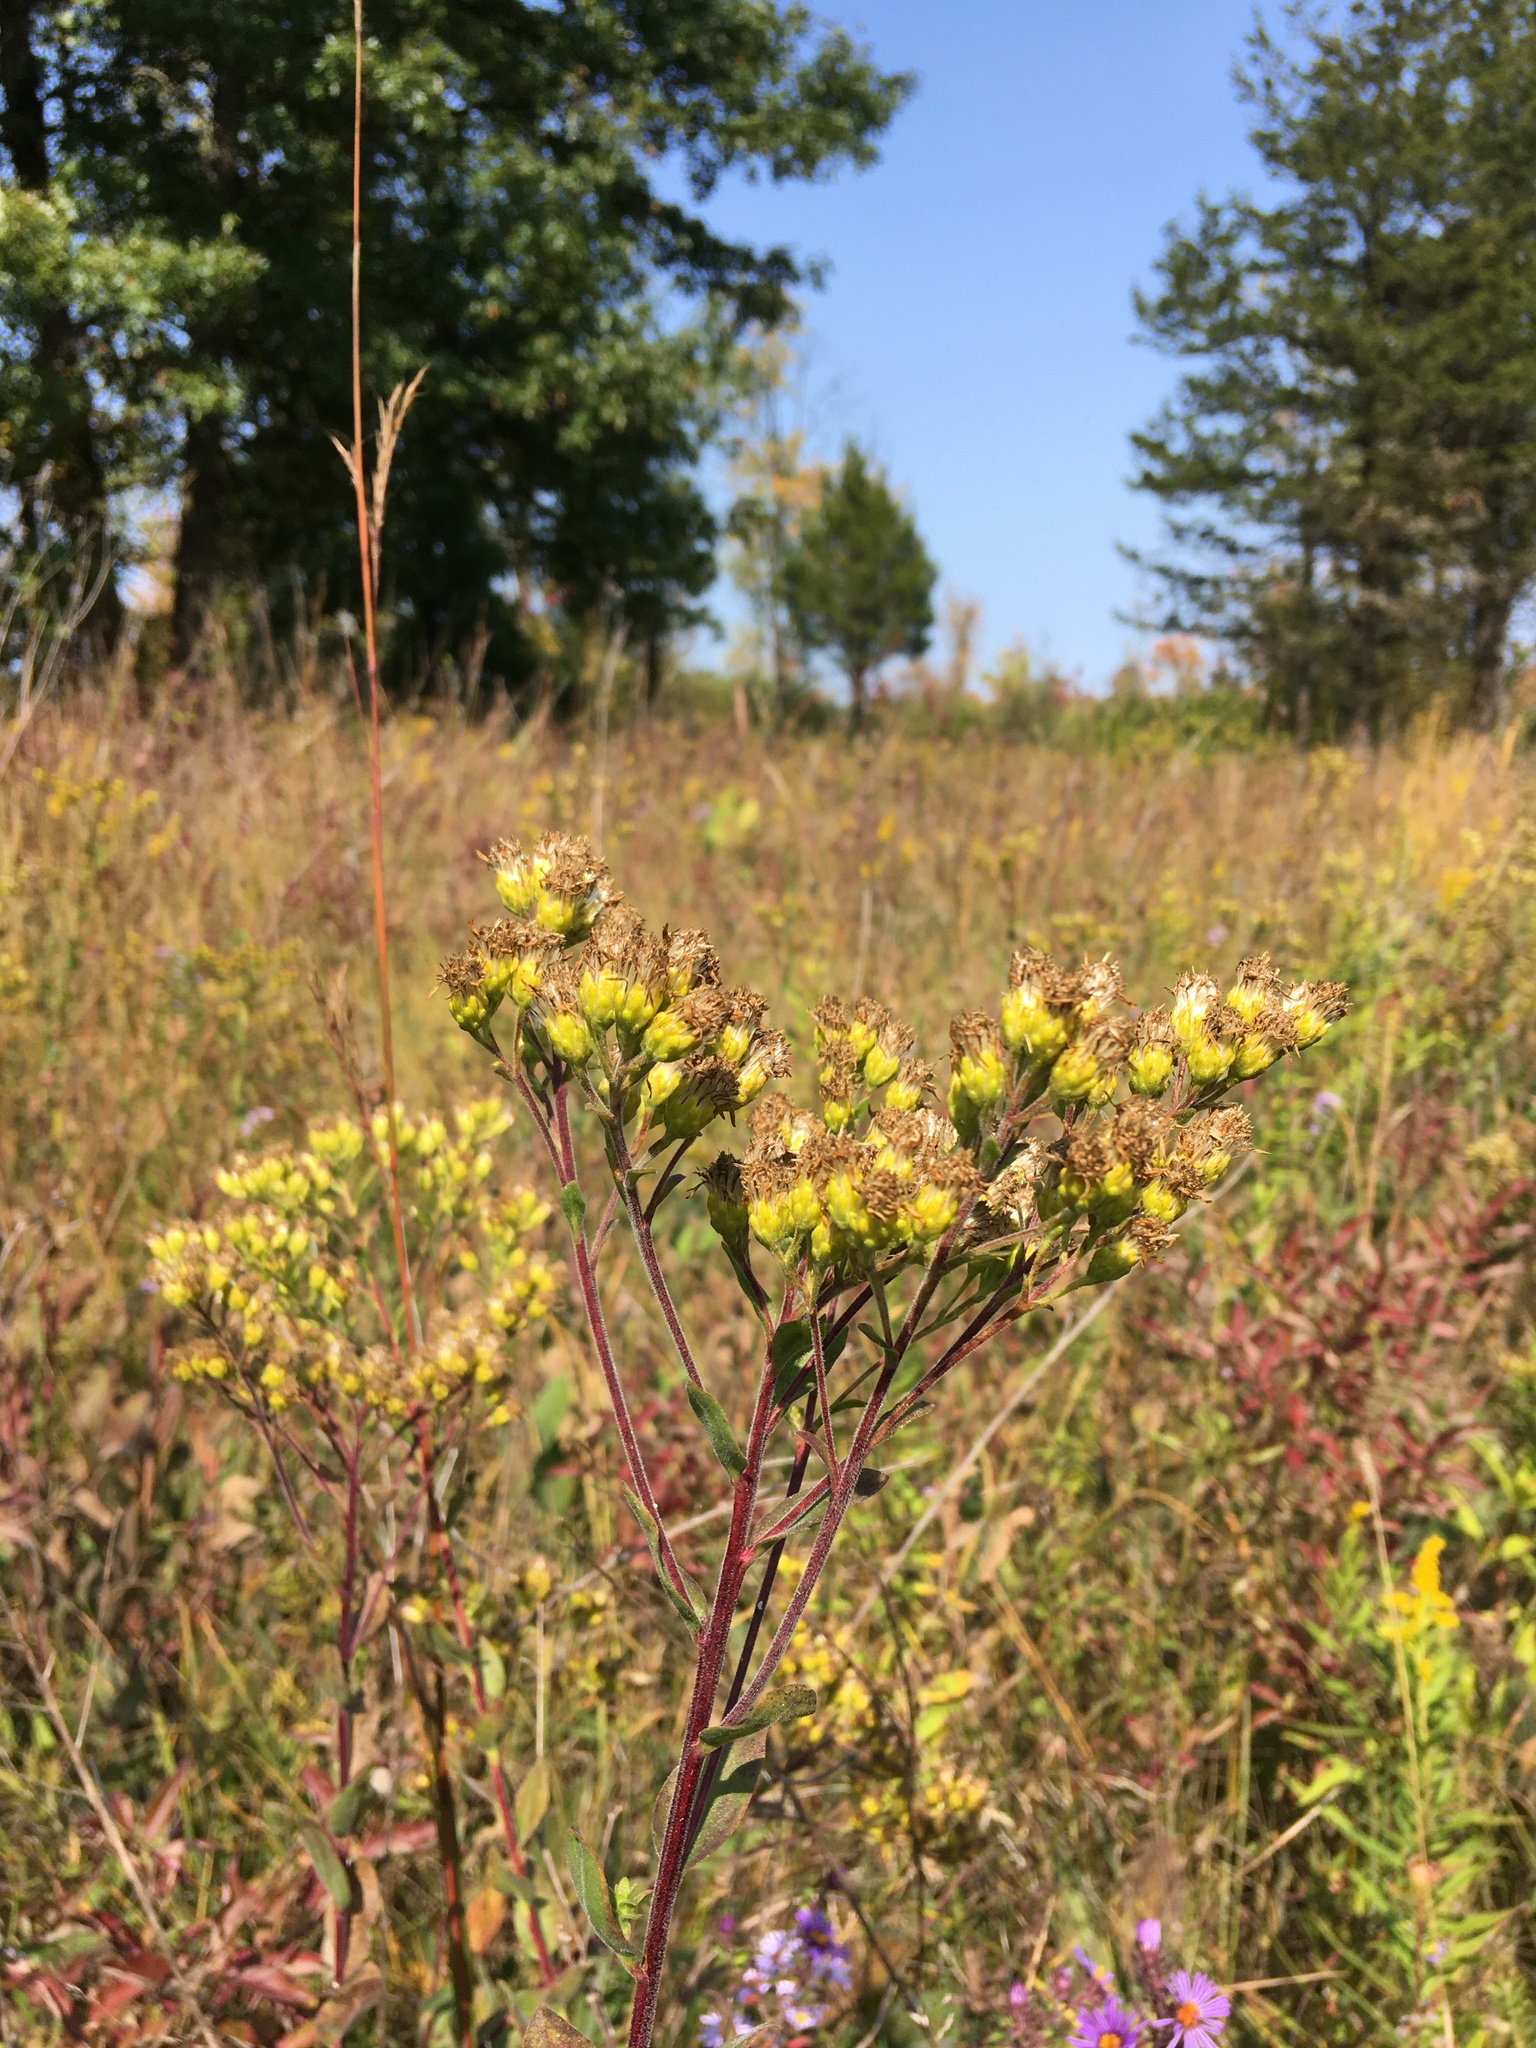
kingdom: Plantae
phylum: Tracheophyta
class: Magnoliopsida
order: Asterales
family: Asteraceae
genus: Solidago
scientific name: Solidago rigida
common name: Rigid goldenrod
